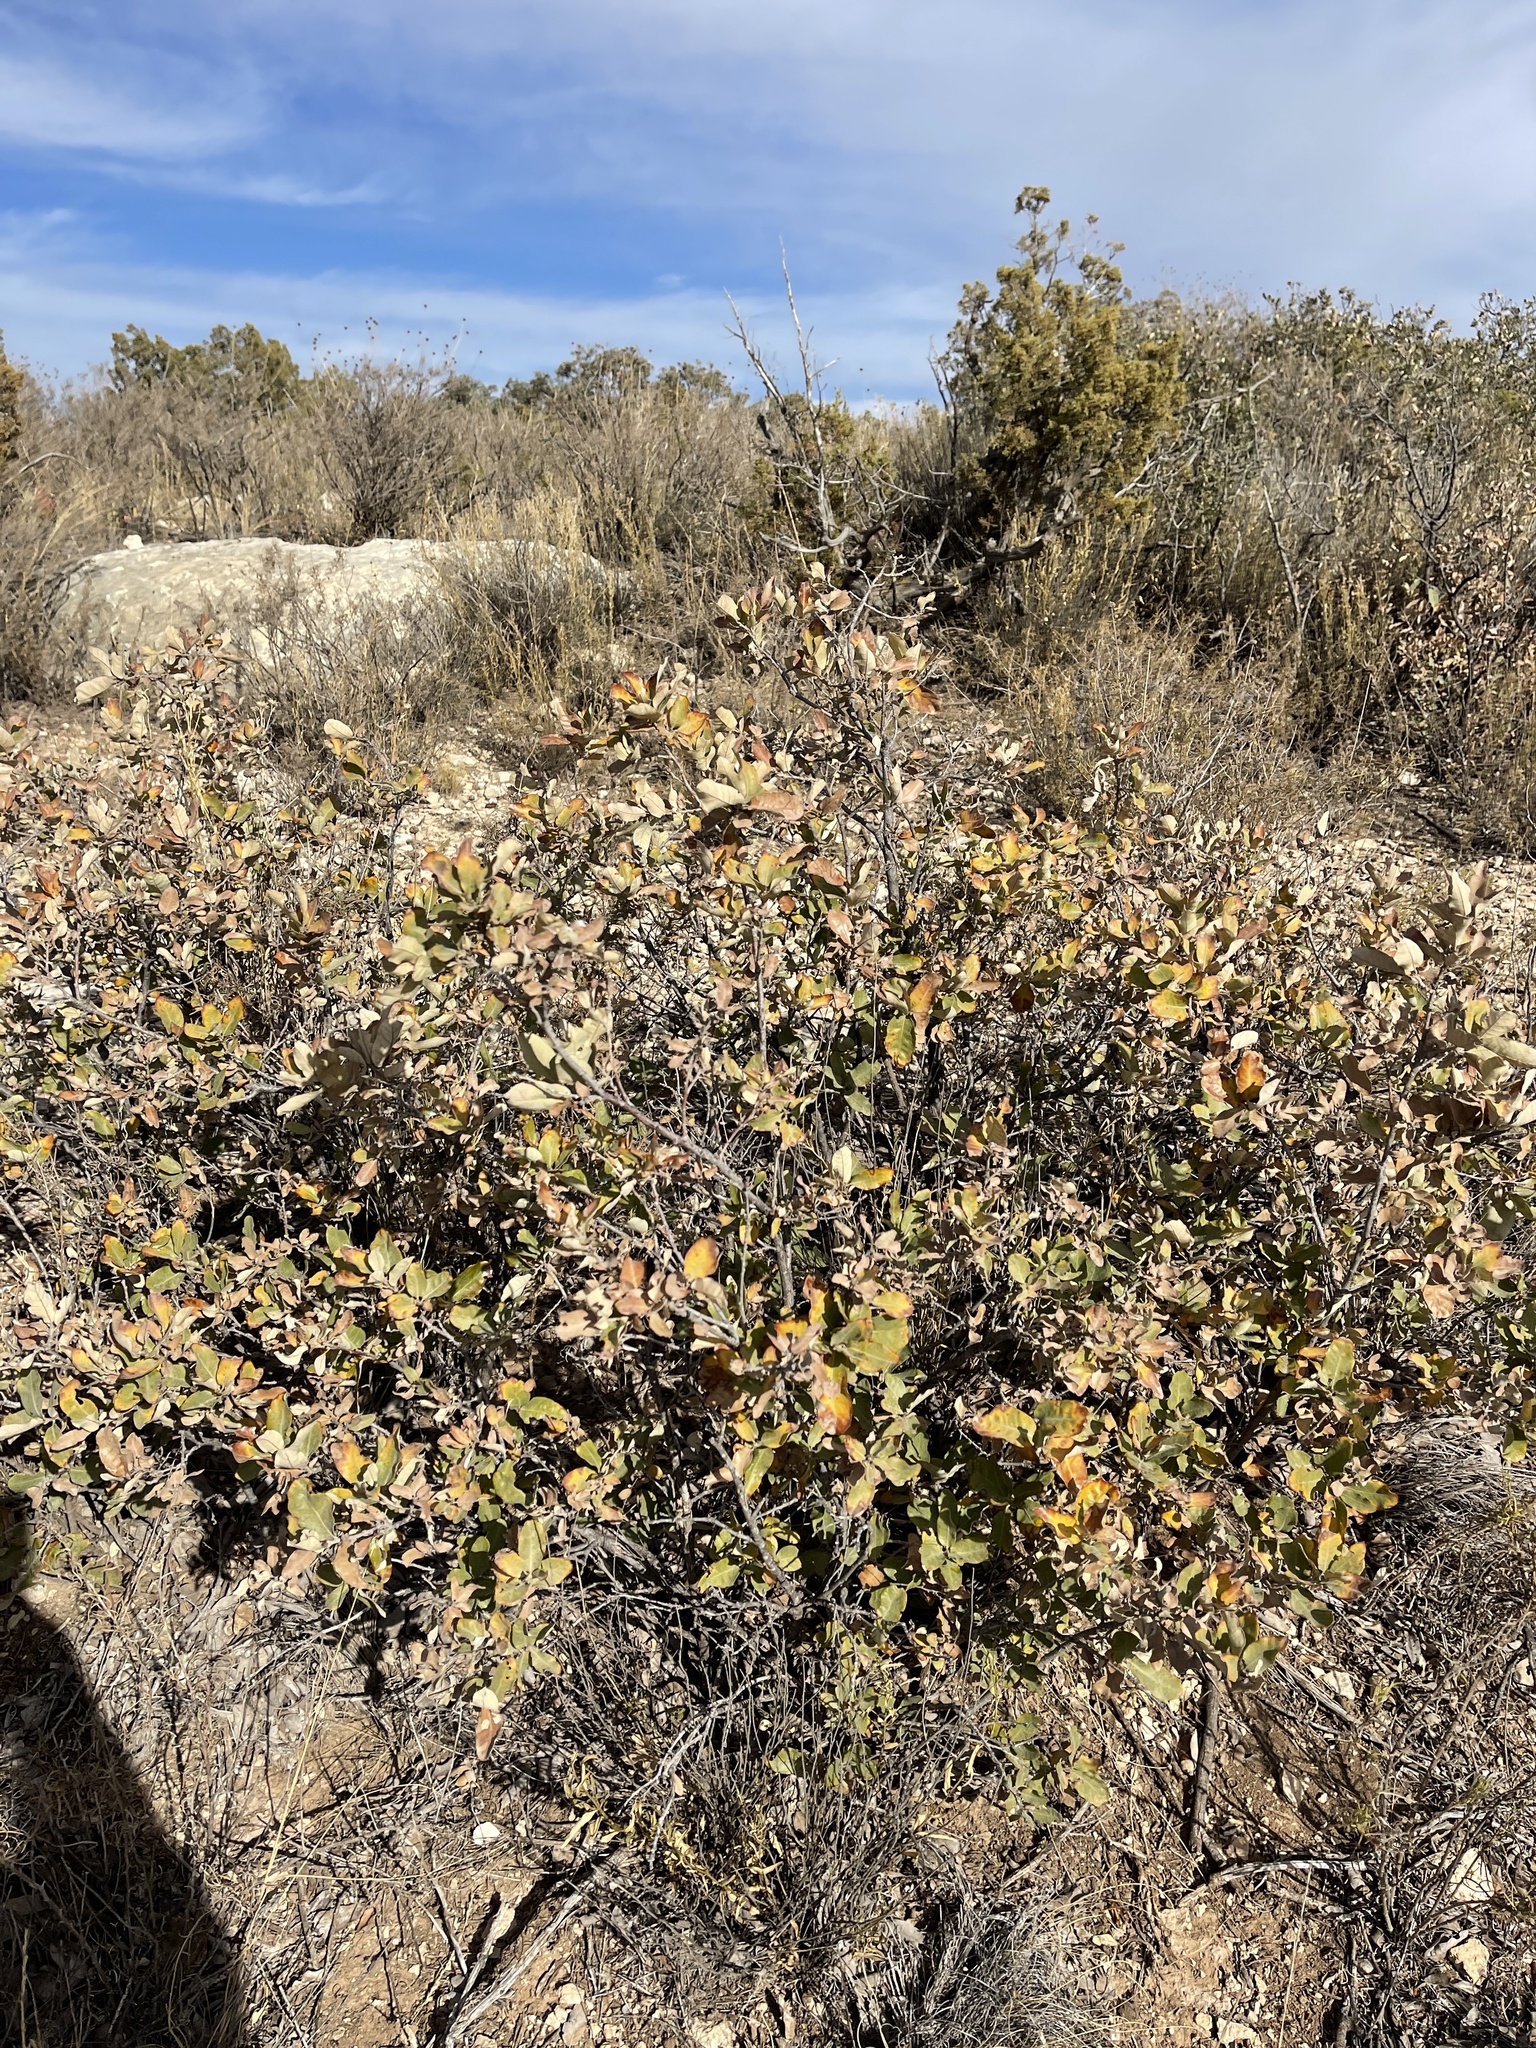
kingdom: Plantae
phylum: Tracheophyta
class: Magnoliopsida
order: Fagales
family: Fagaceae
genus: Quercus
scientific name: Quercus mohriana
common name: Mohr oak
